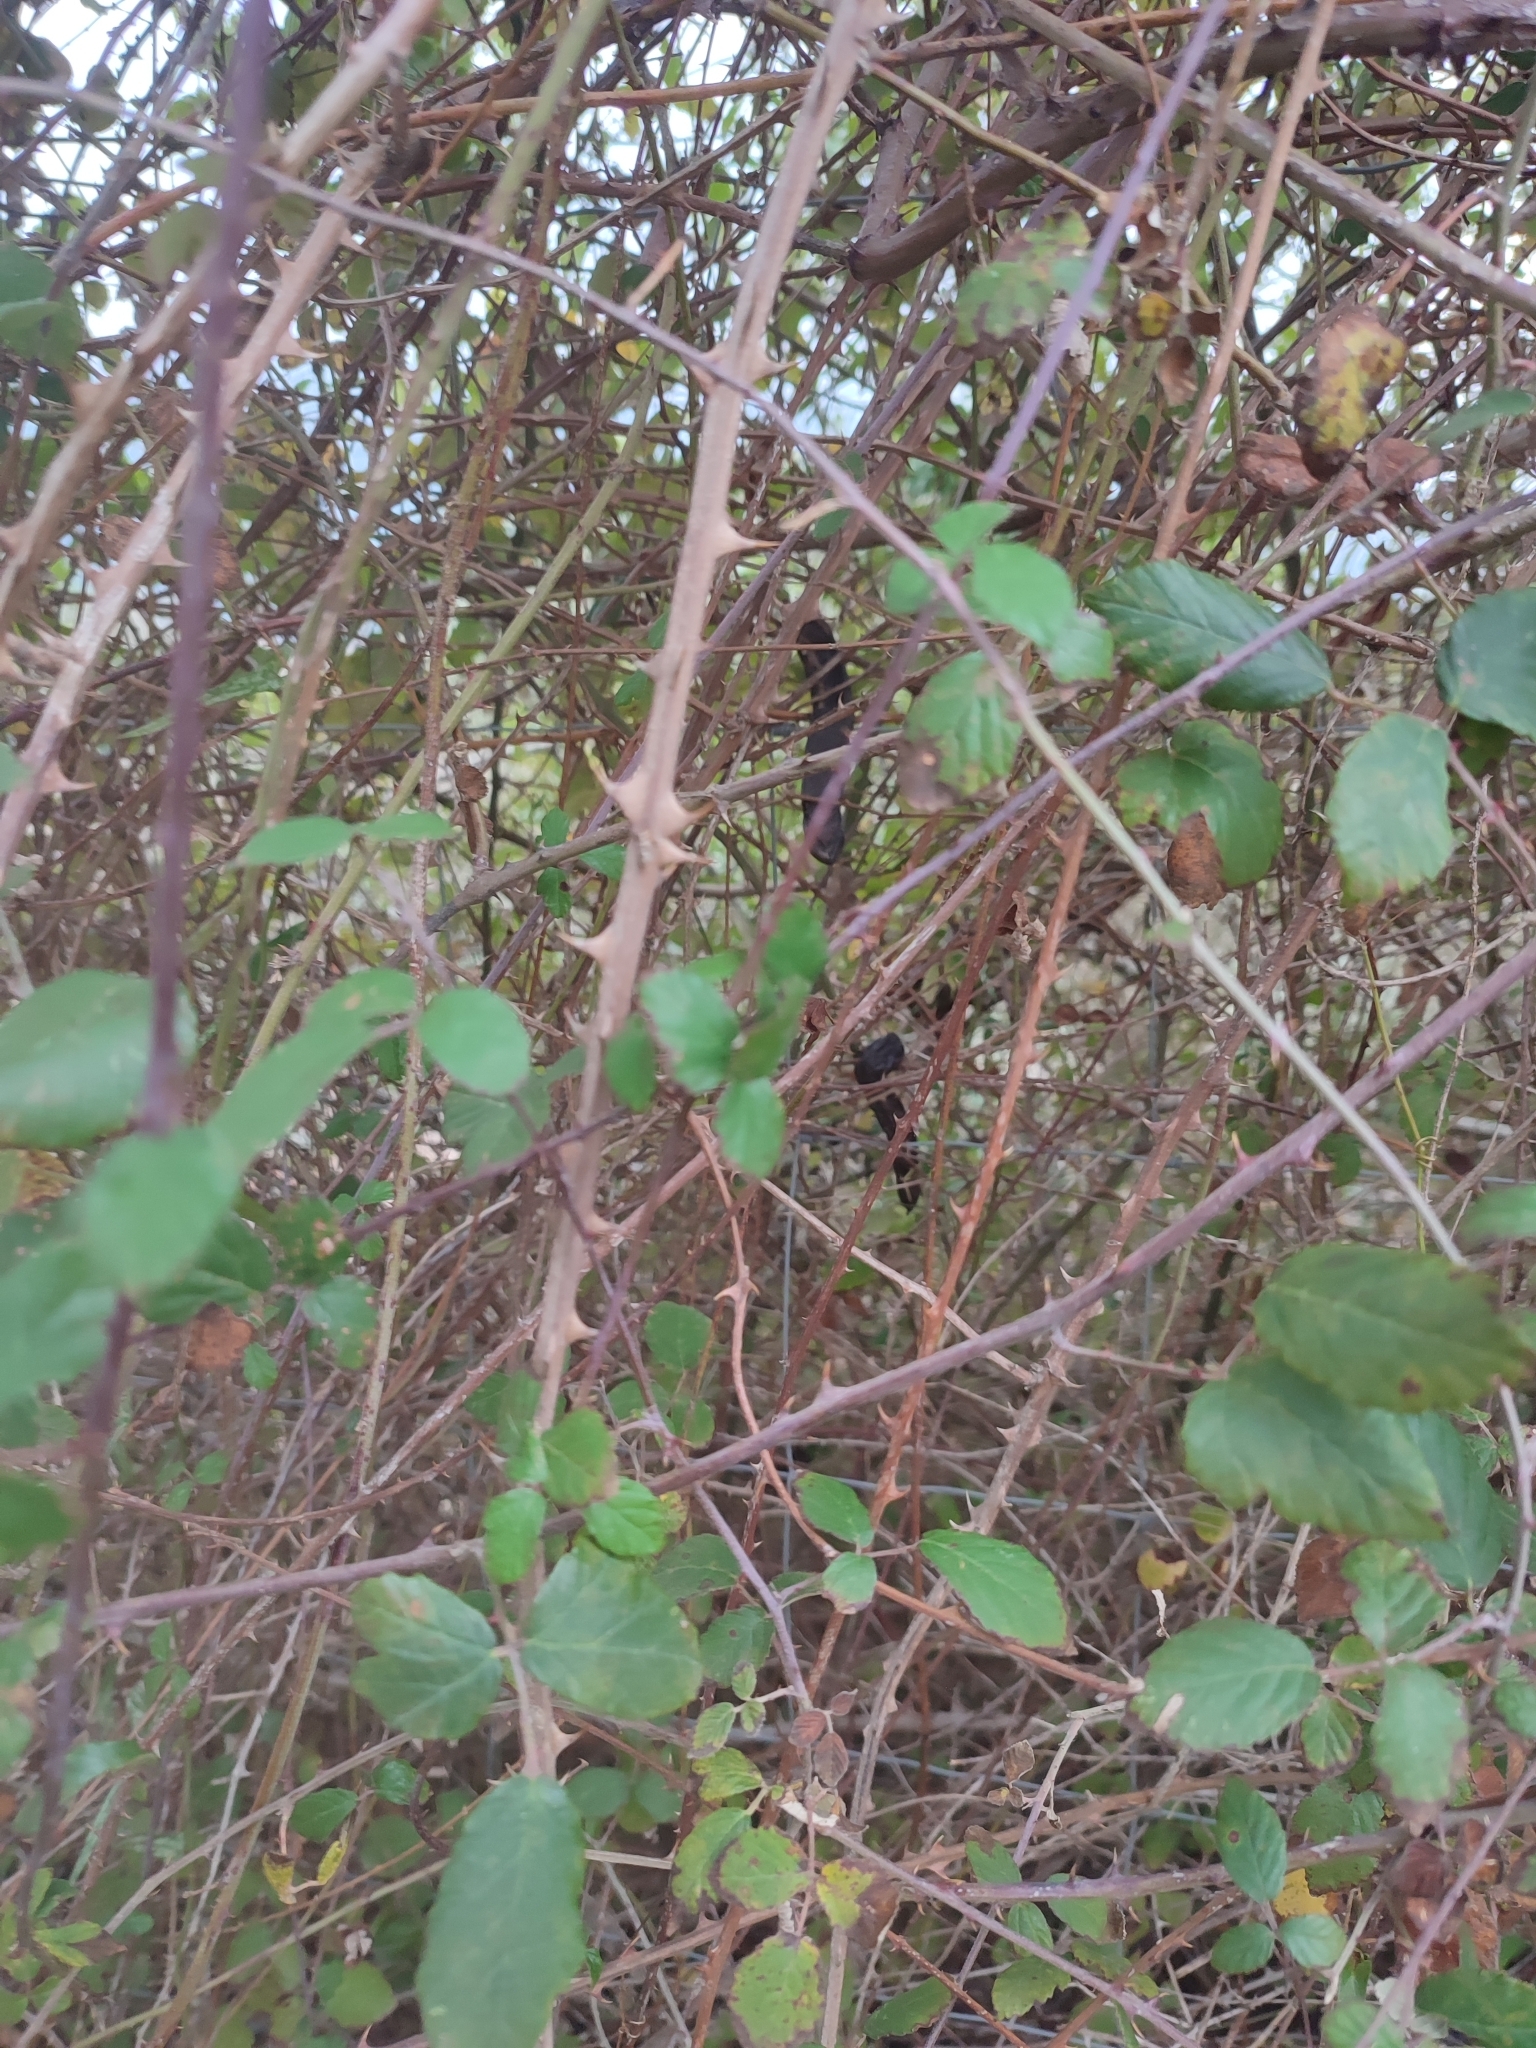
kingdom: Plantae
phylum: Tracheophyta
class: Magnoliopsida
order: Rosales
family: Rosaceae
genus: Rubus
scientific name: Rubus ulmifolius
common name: Elmleaf blackberry
